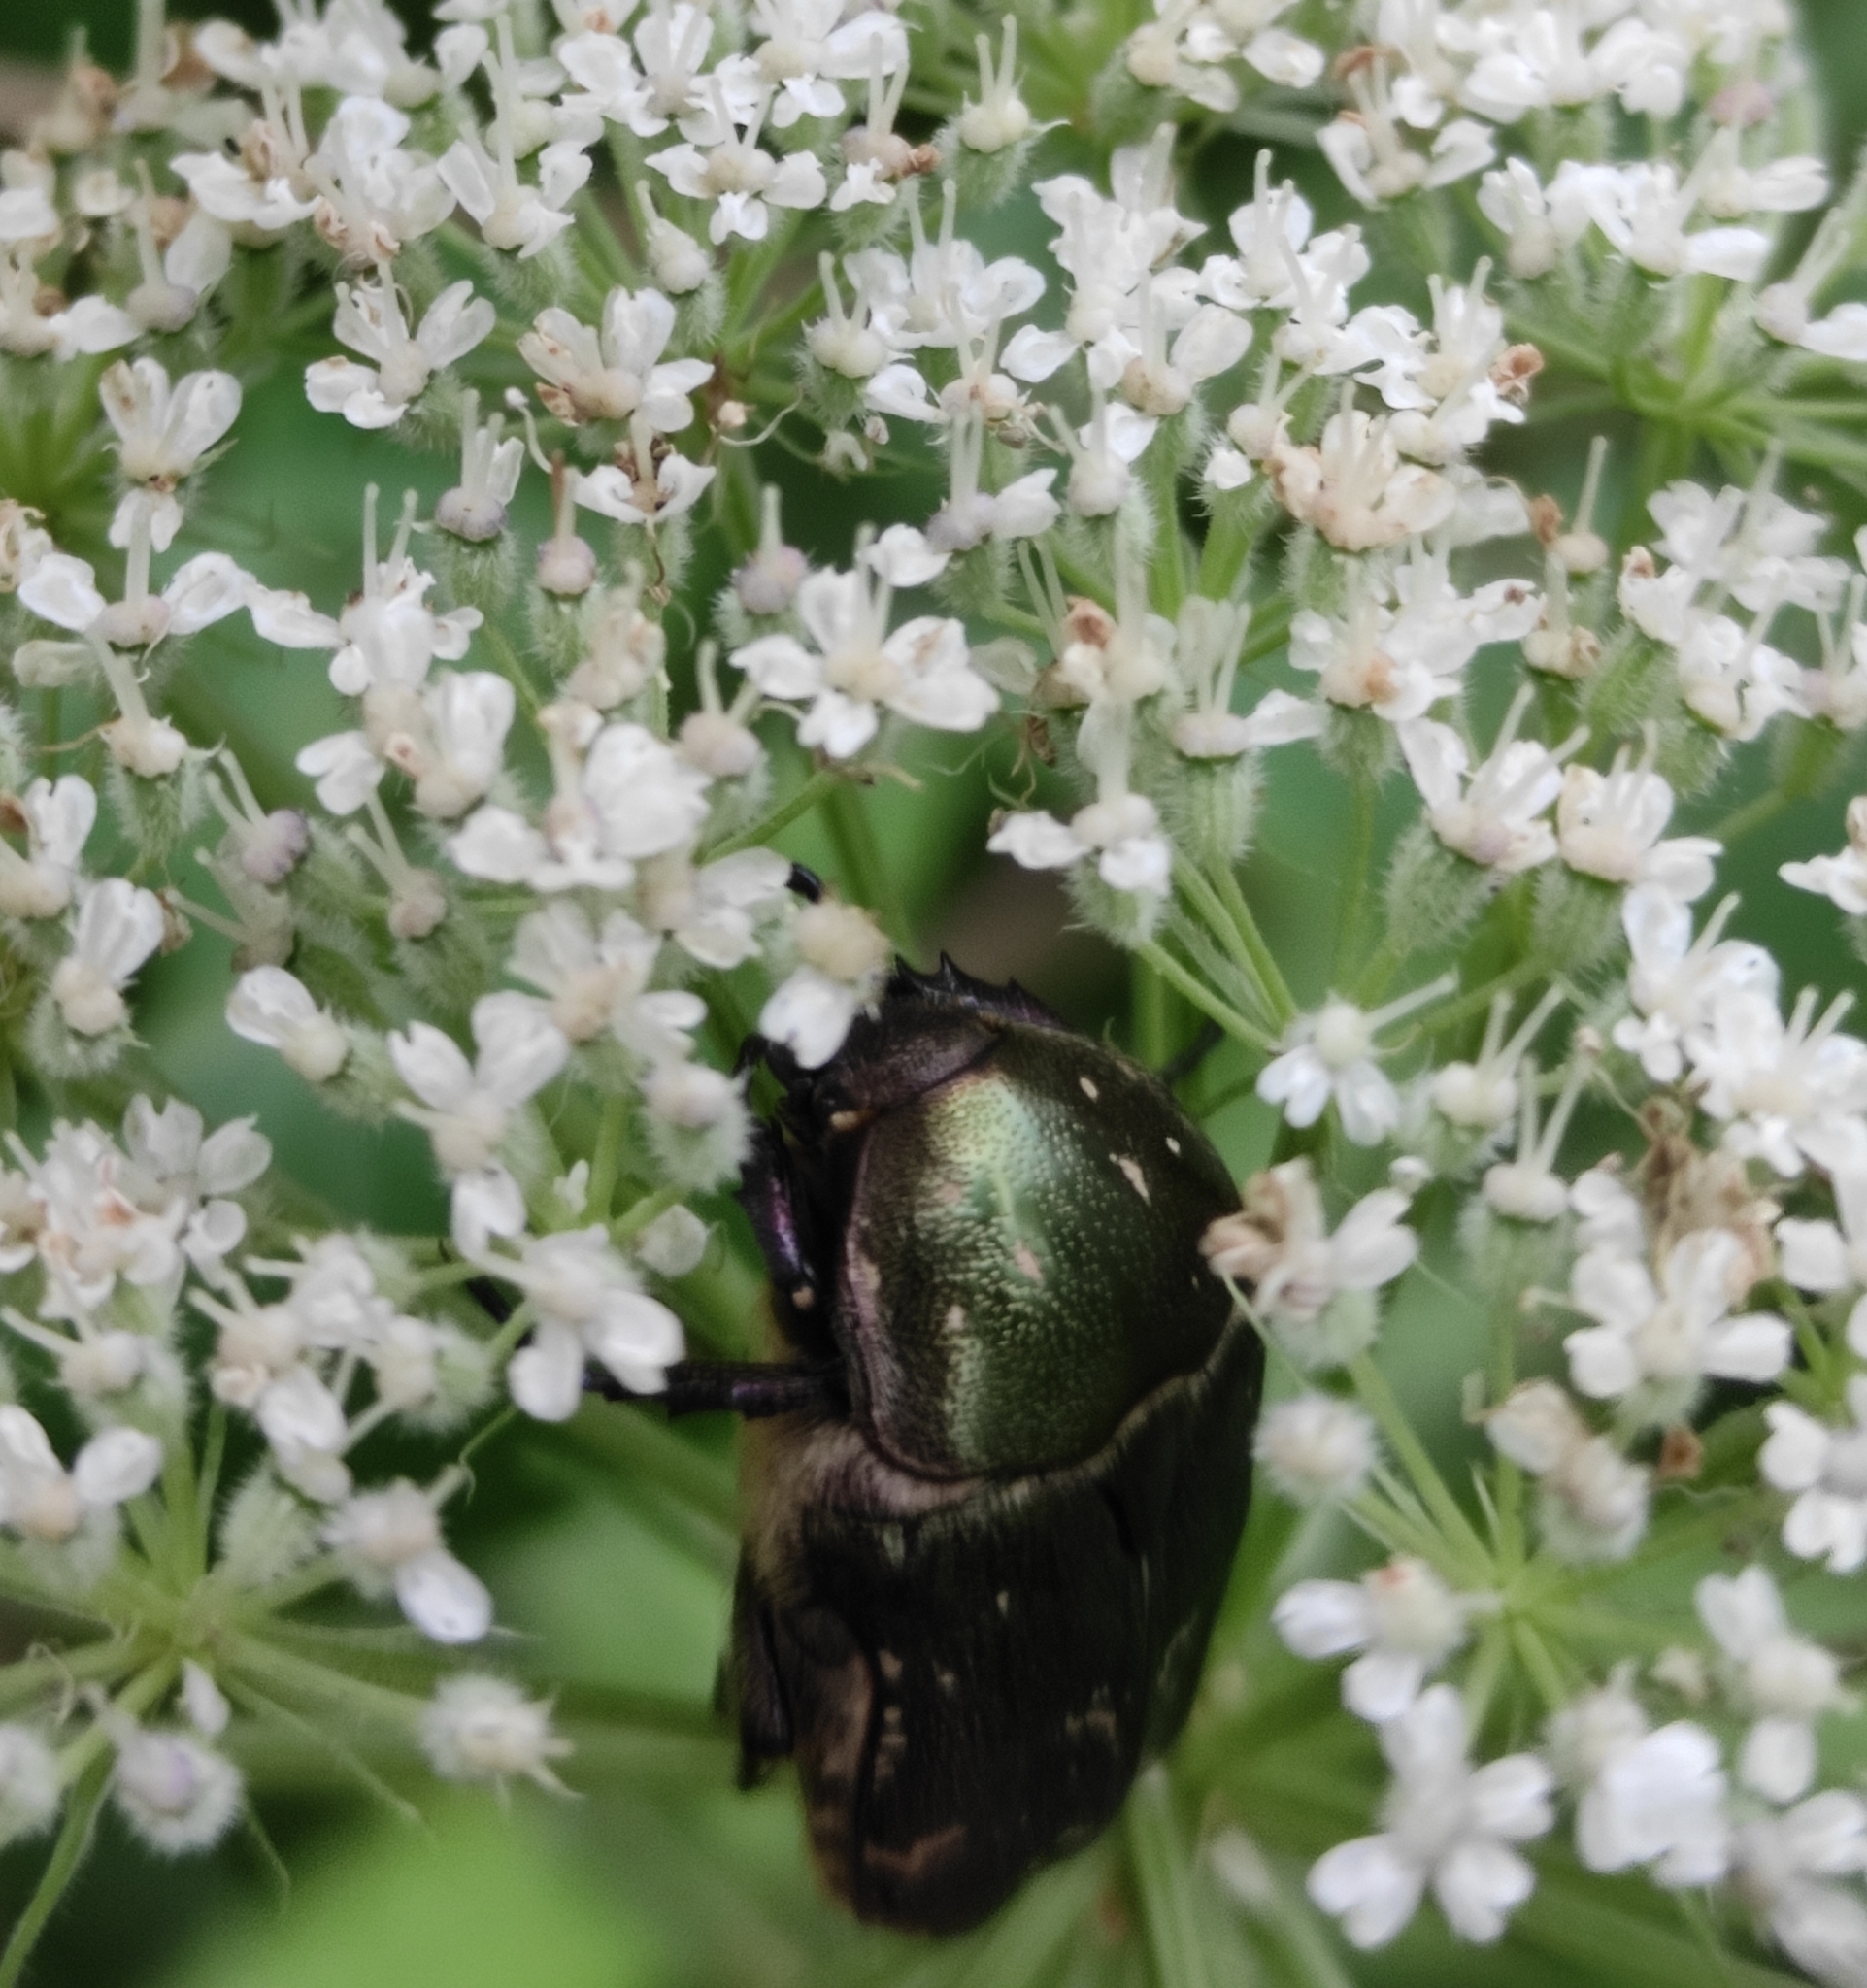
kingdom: Animalia
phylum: Arthropoda
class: Insecta
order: Coleoptera
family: Scarabaeidae
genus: Protaetia
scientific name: Protaetia cuprea
